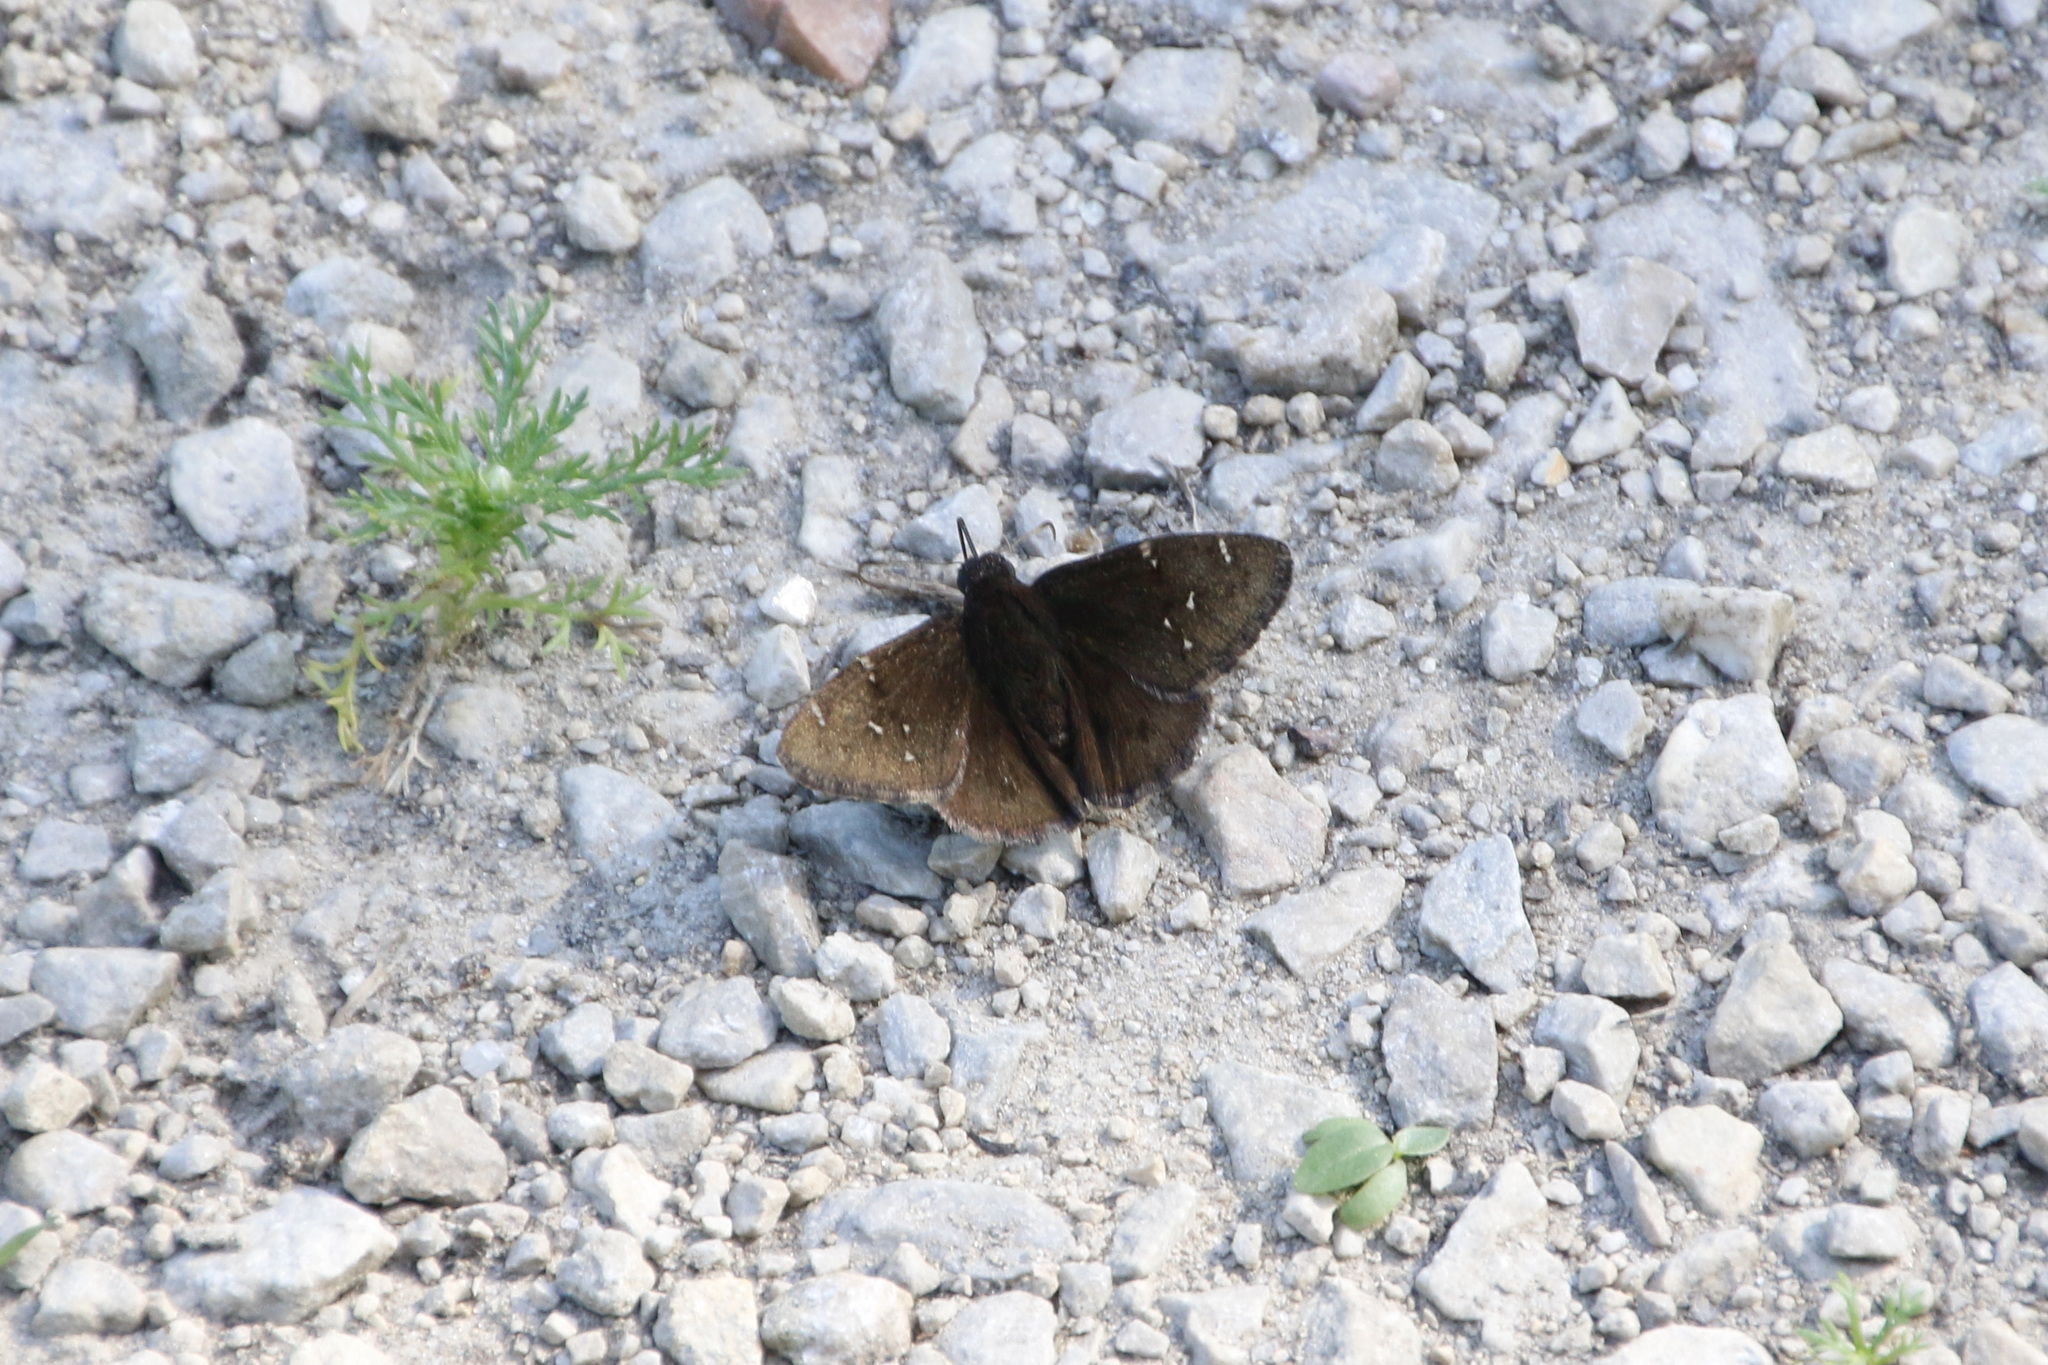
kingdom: Animalia
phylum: Arthropoda
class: Insecta
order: Lepidoptera
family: Hesperiidae
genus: Thorybes
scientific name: Thorybes pylades
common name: Northern cloudywing
